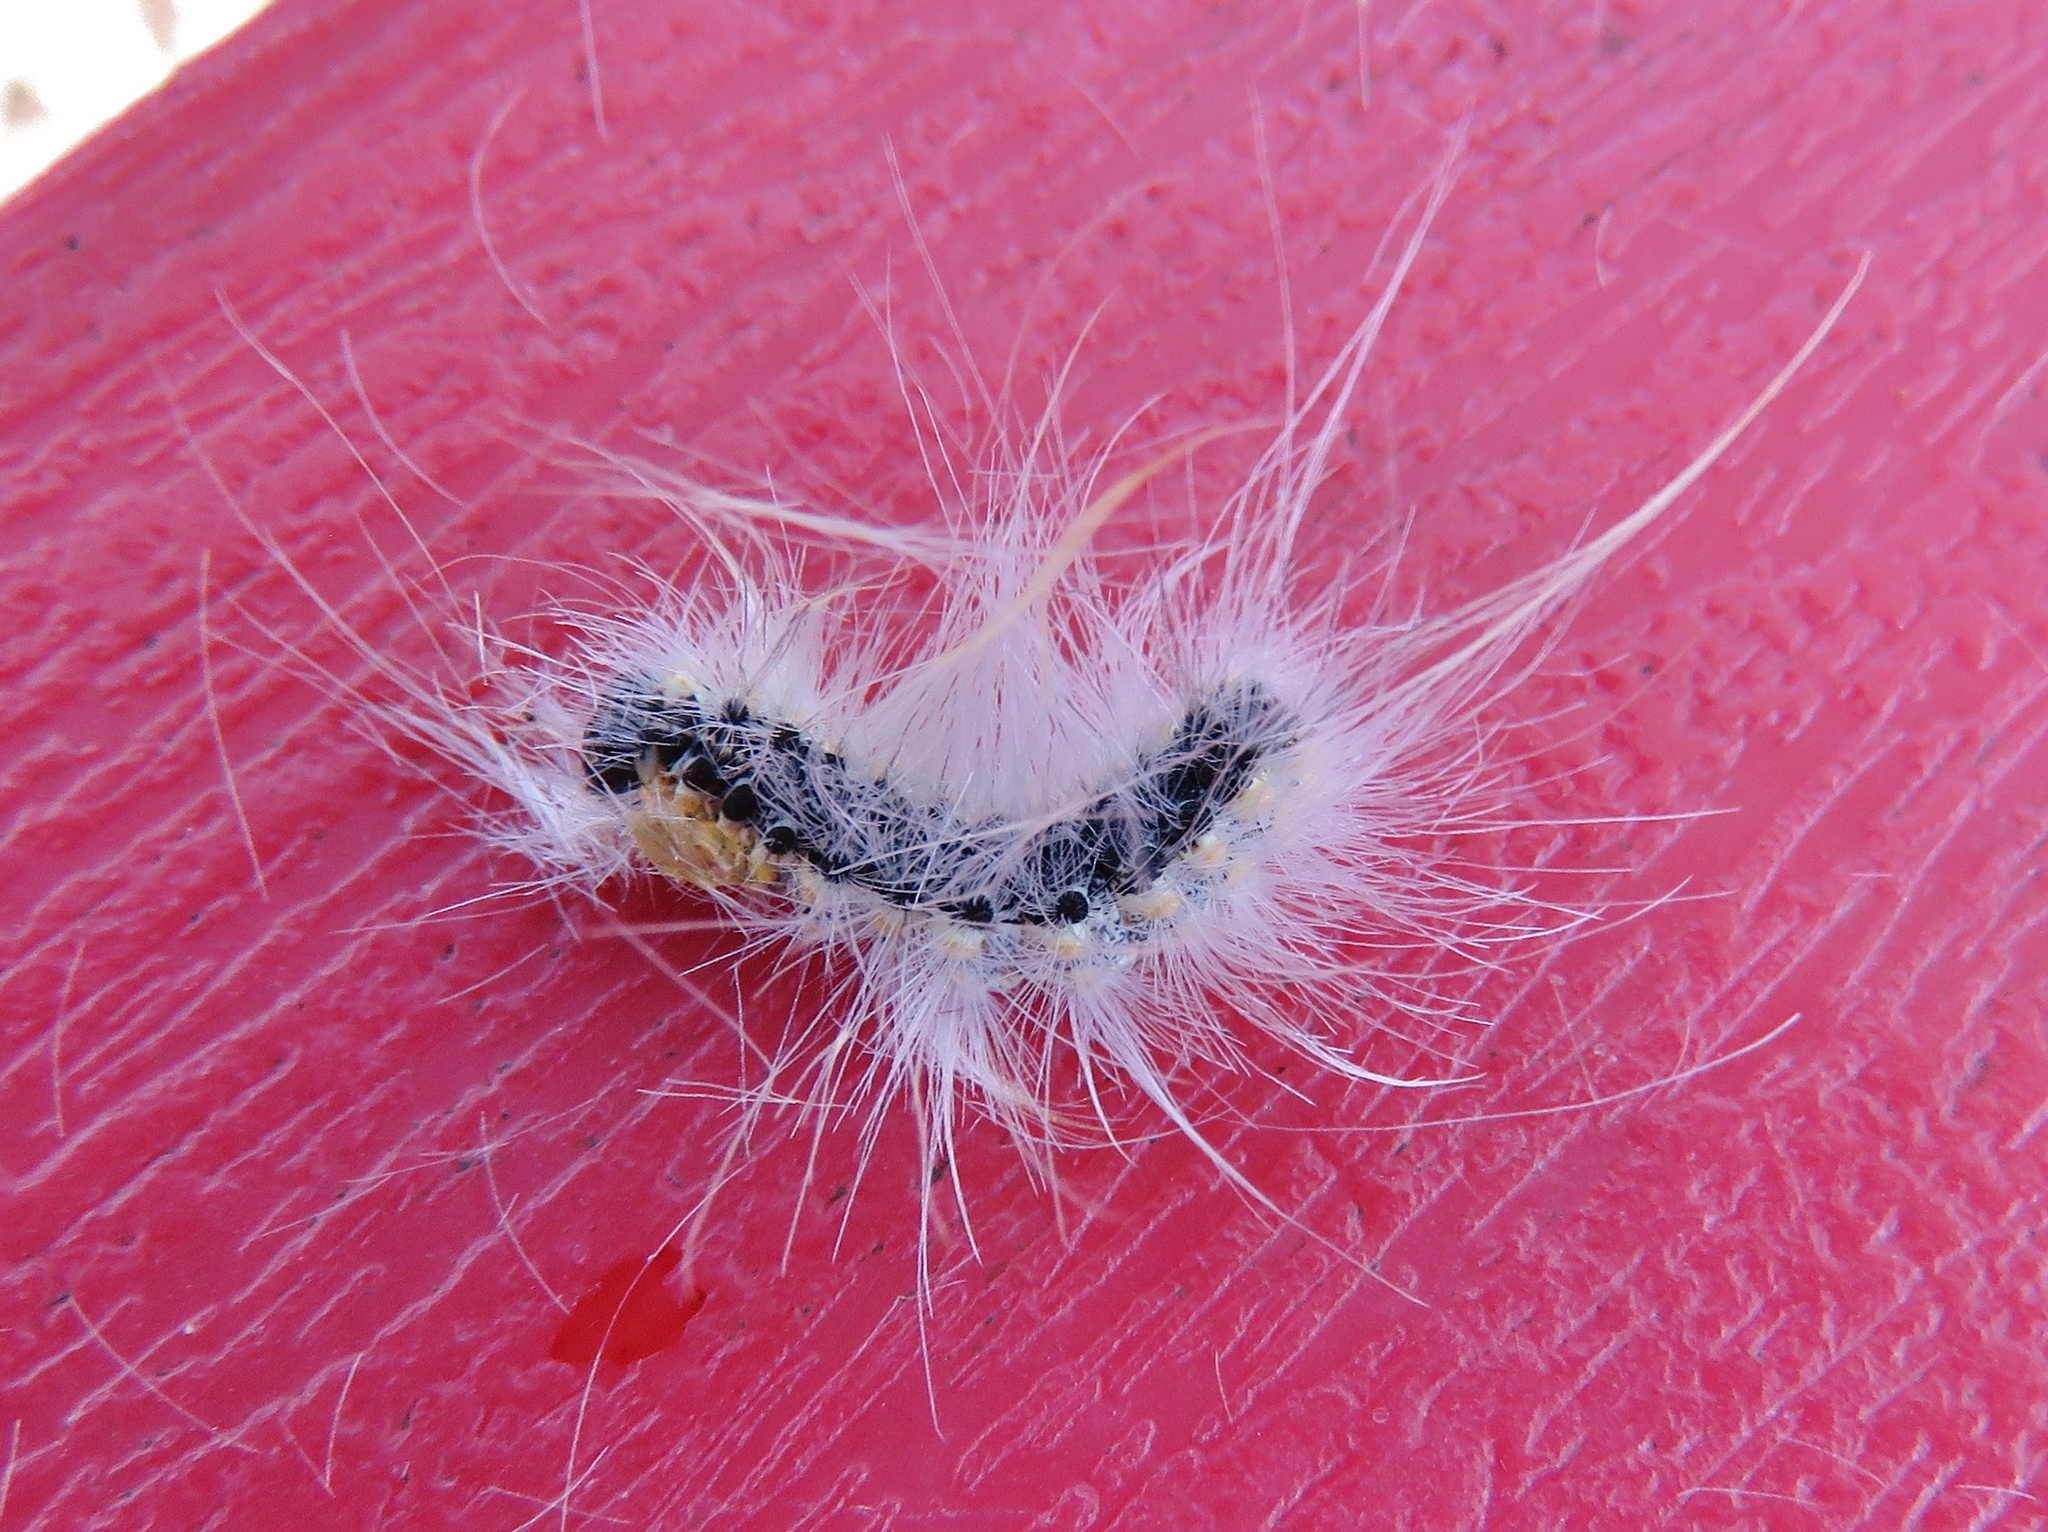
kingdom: Animalia
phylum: Arthropoda
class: Insecta
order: Lepidoptera
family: Erebidae
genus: Hyphantria
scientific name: Hyphantria cunea
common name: American white moth
